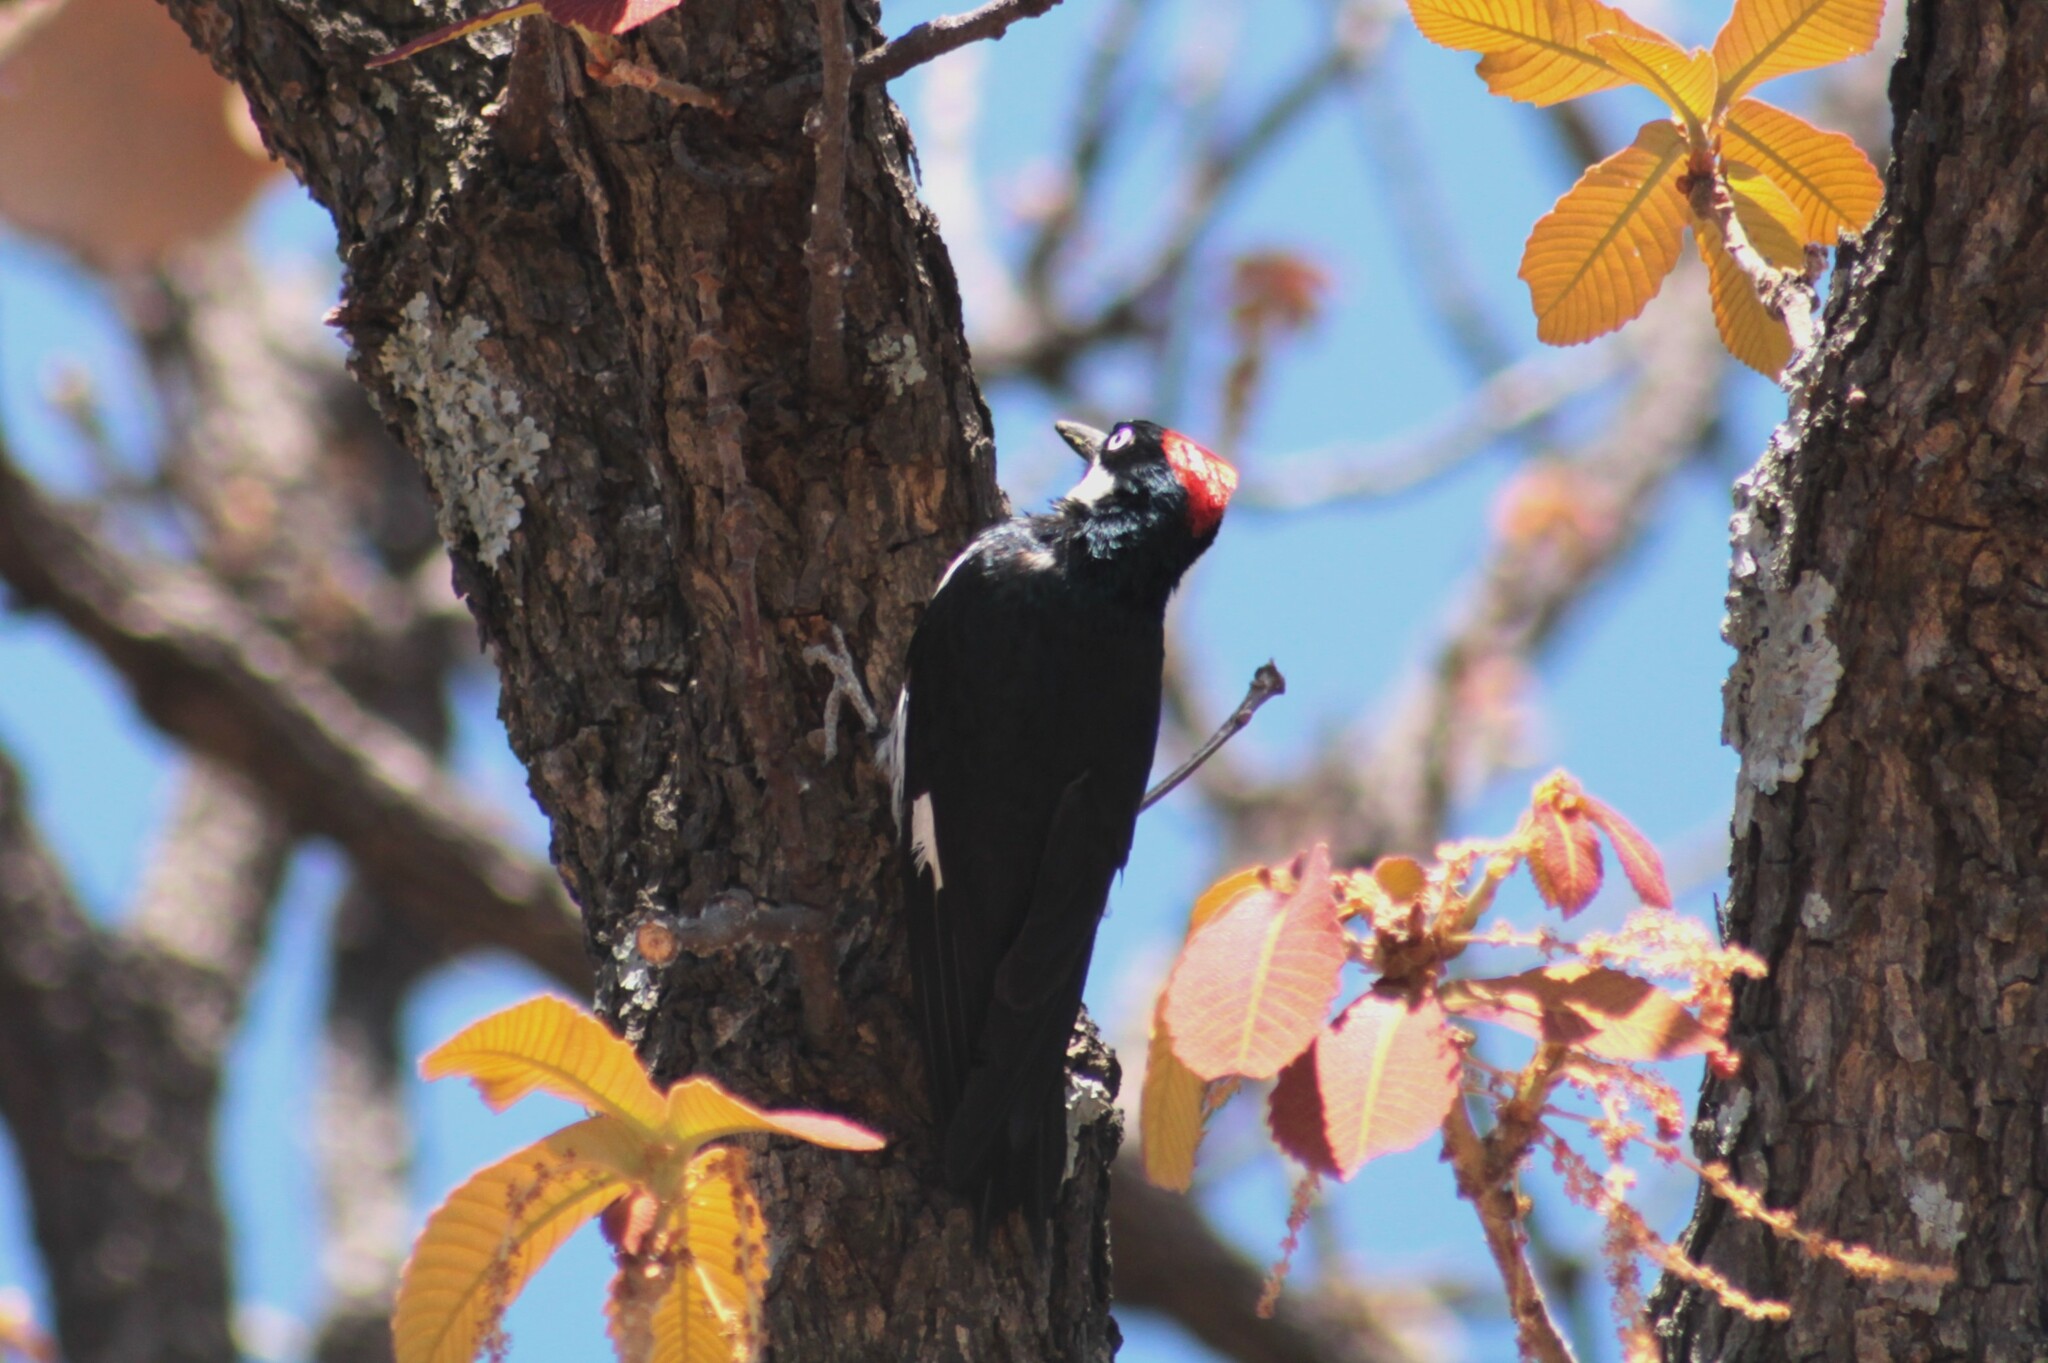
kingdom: Animalia
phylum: Chordata
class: Aves
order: Piciformes
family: Picidae
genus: Melanerpes
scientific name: Melanerpes formicivorus
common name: Acorn woodpecker
